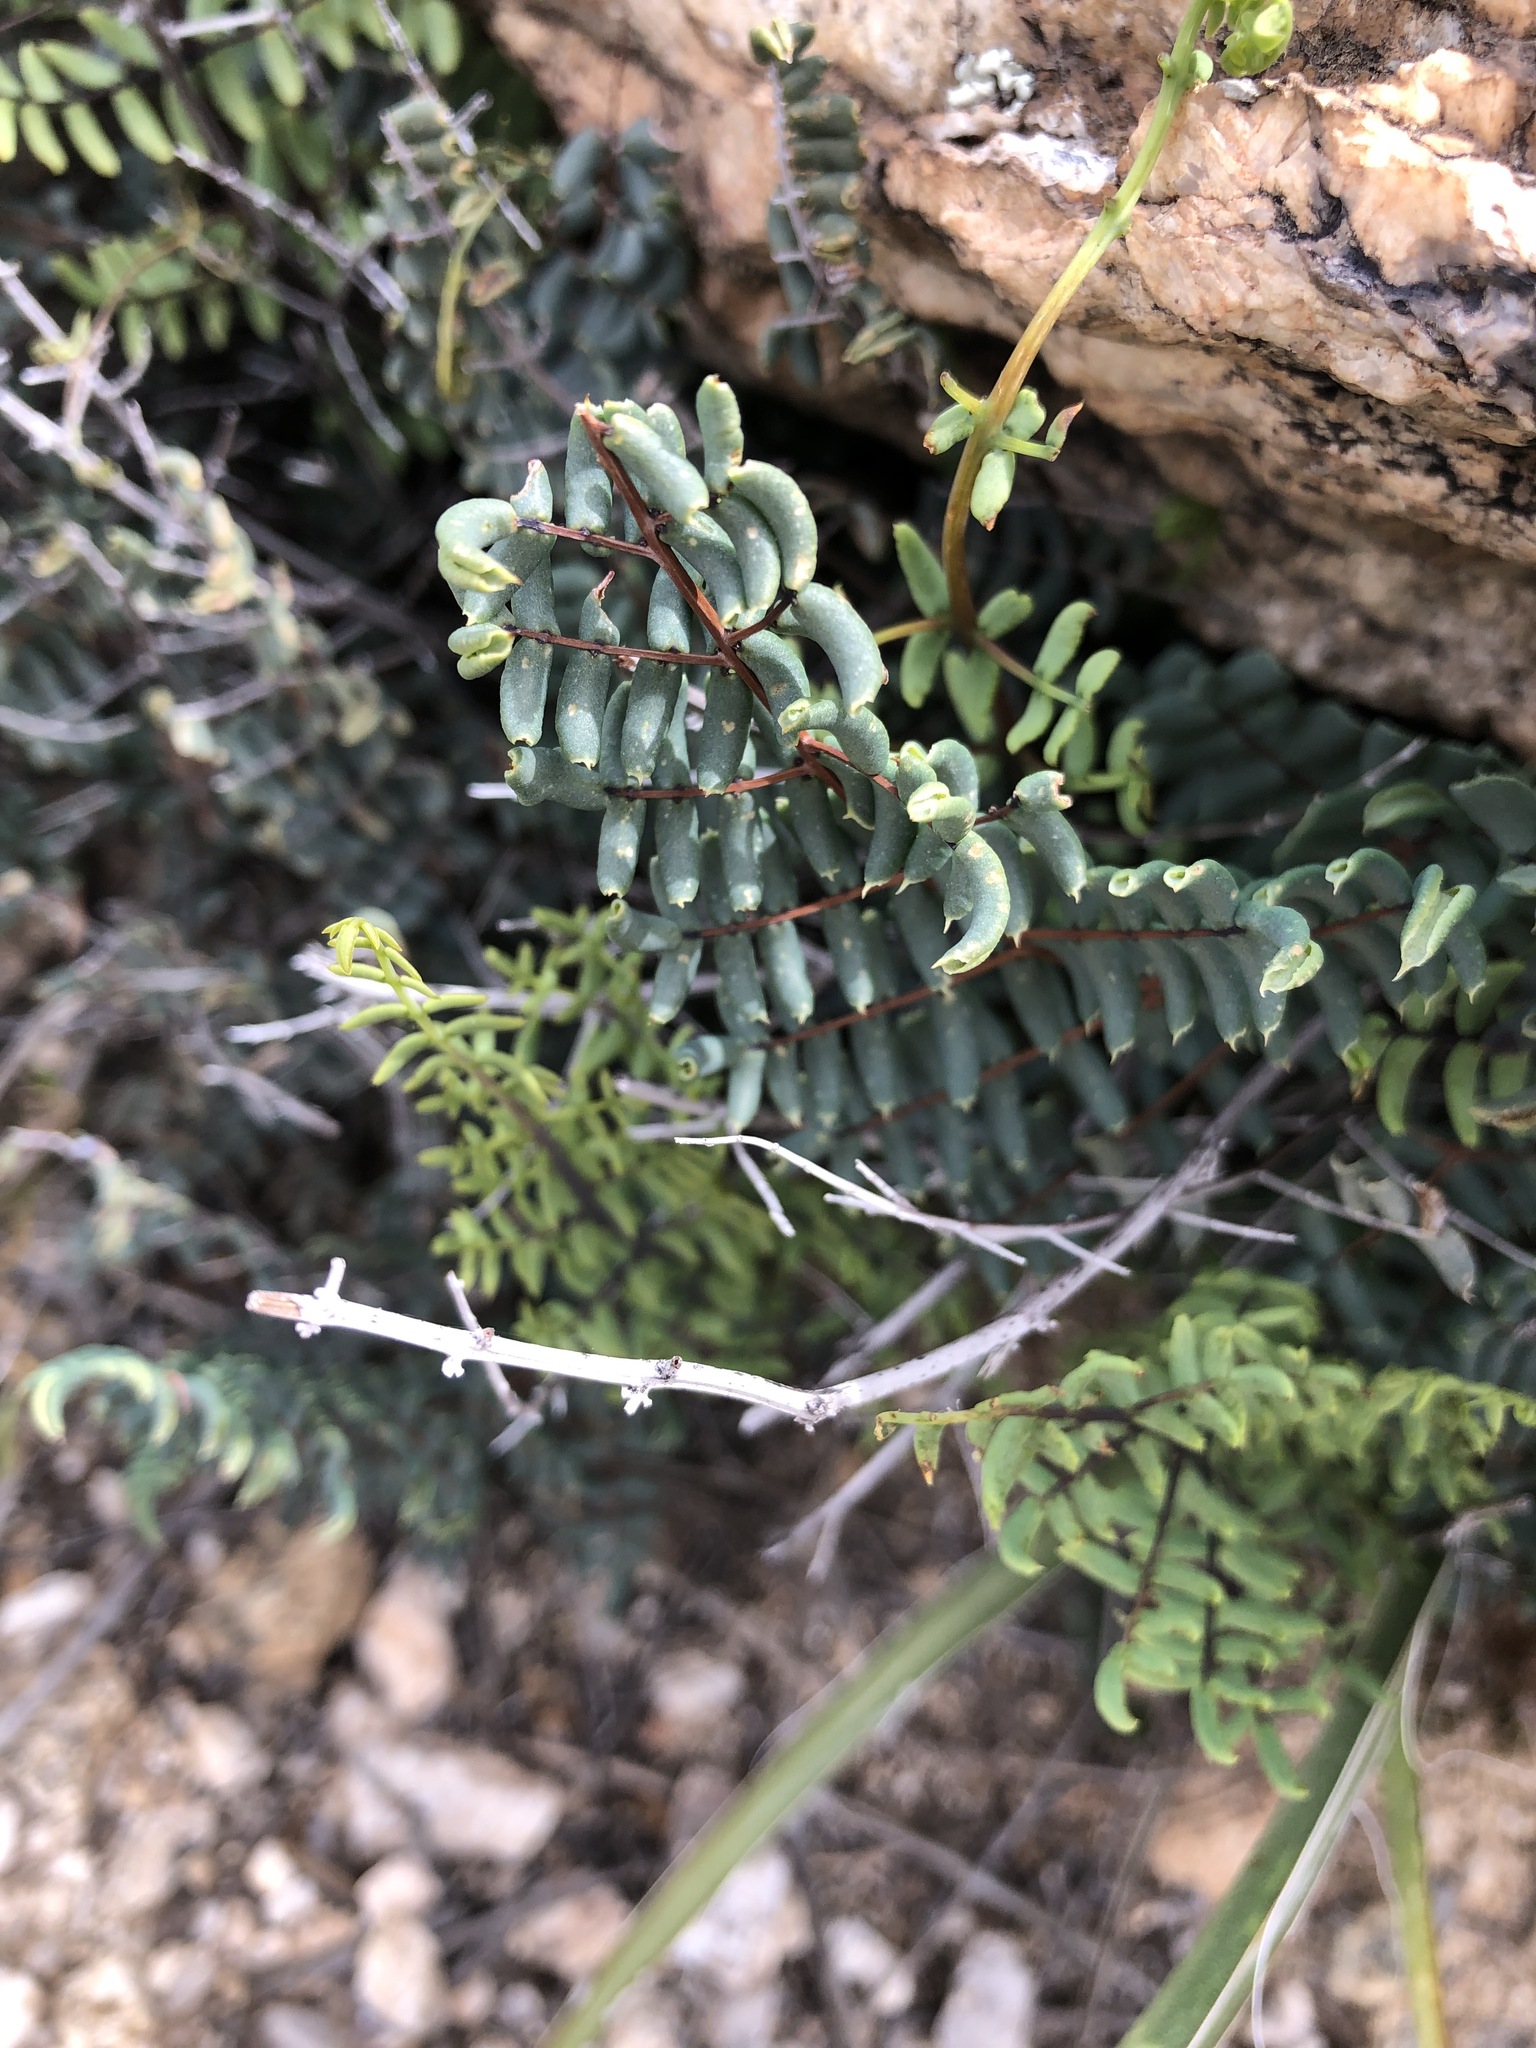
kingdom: Plantae
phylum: Tracheophyta
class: Polypodiopsida
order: Polypodiales
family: Pteridaceae
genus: Pellaea
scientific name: Pellaea truncata
